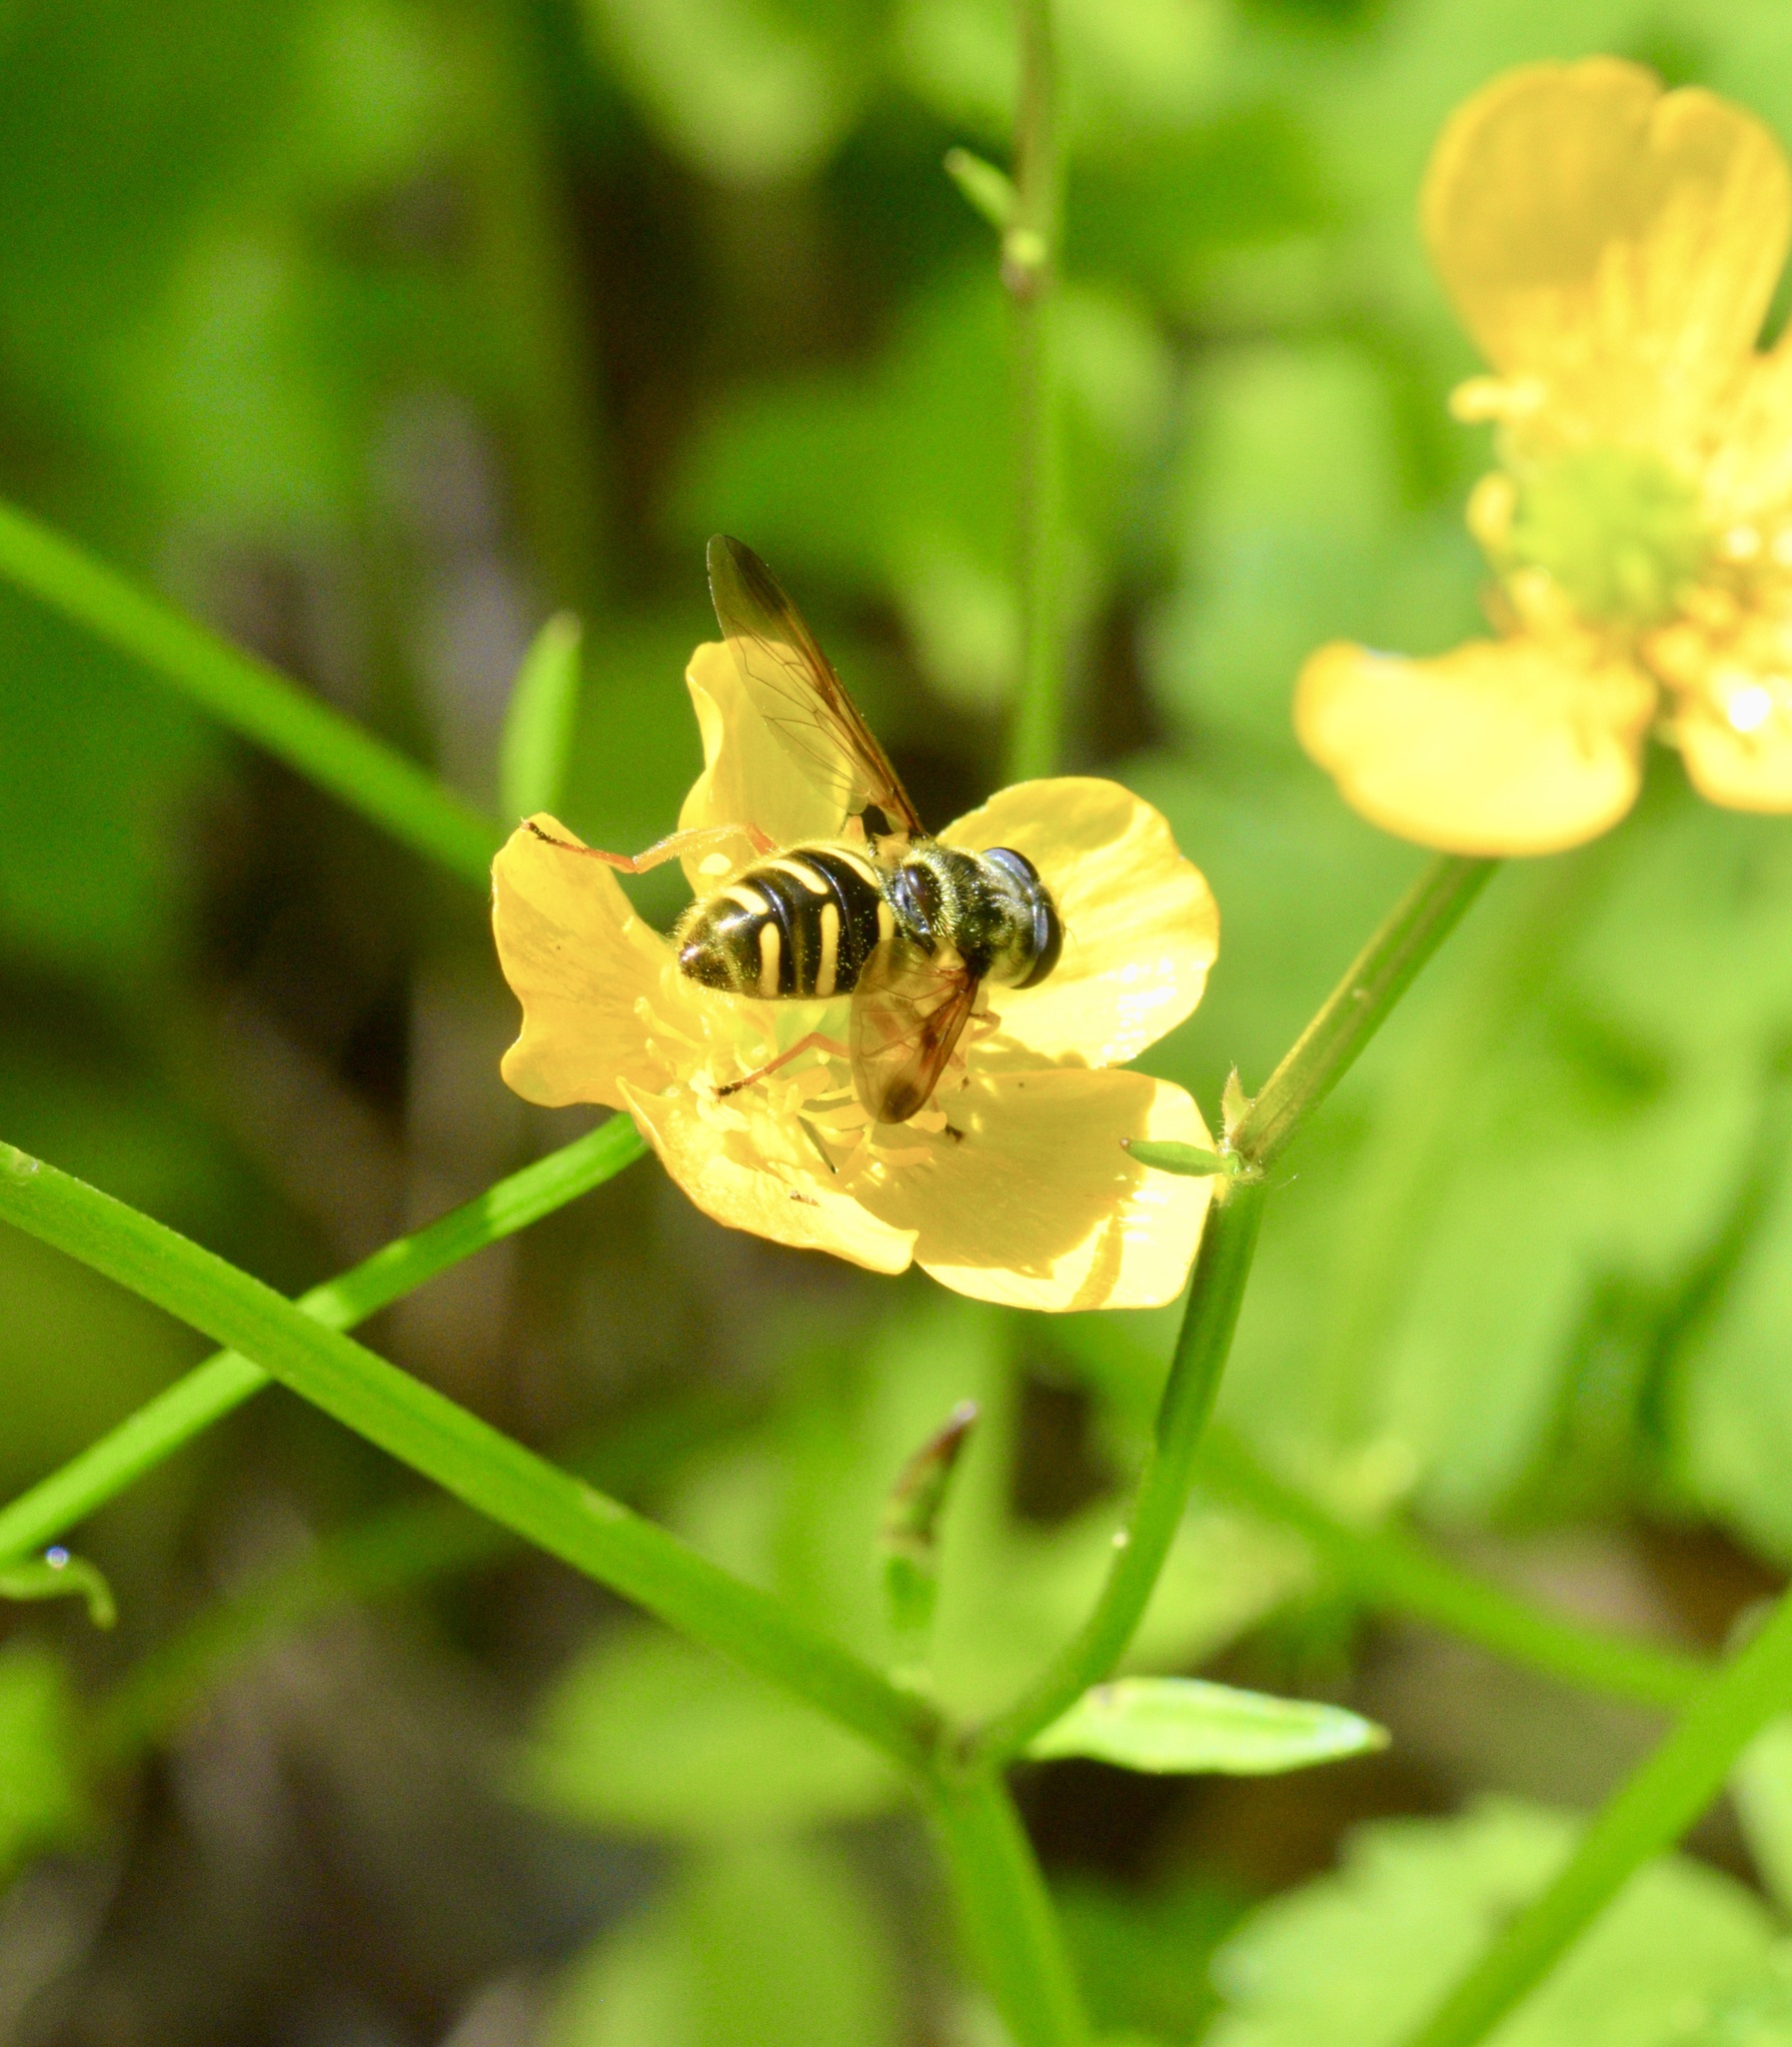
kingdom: Animalia
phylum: Arthropoda
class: Insecta
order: Diptera
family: Syrphidae
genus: Sericomyia
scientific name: Sericomyia chrysotoxoides
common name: Oblique-banded pond fly
